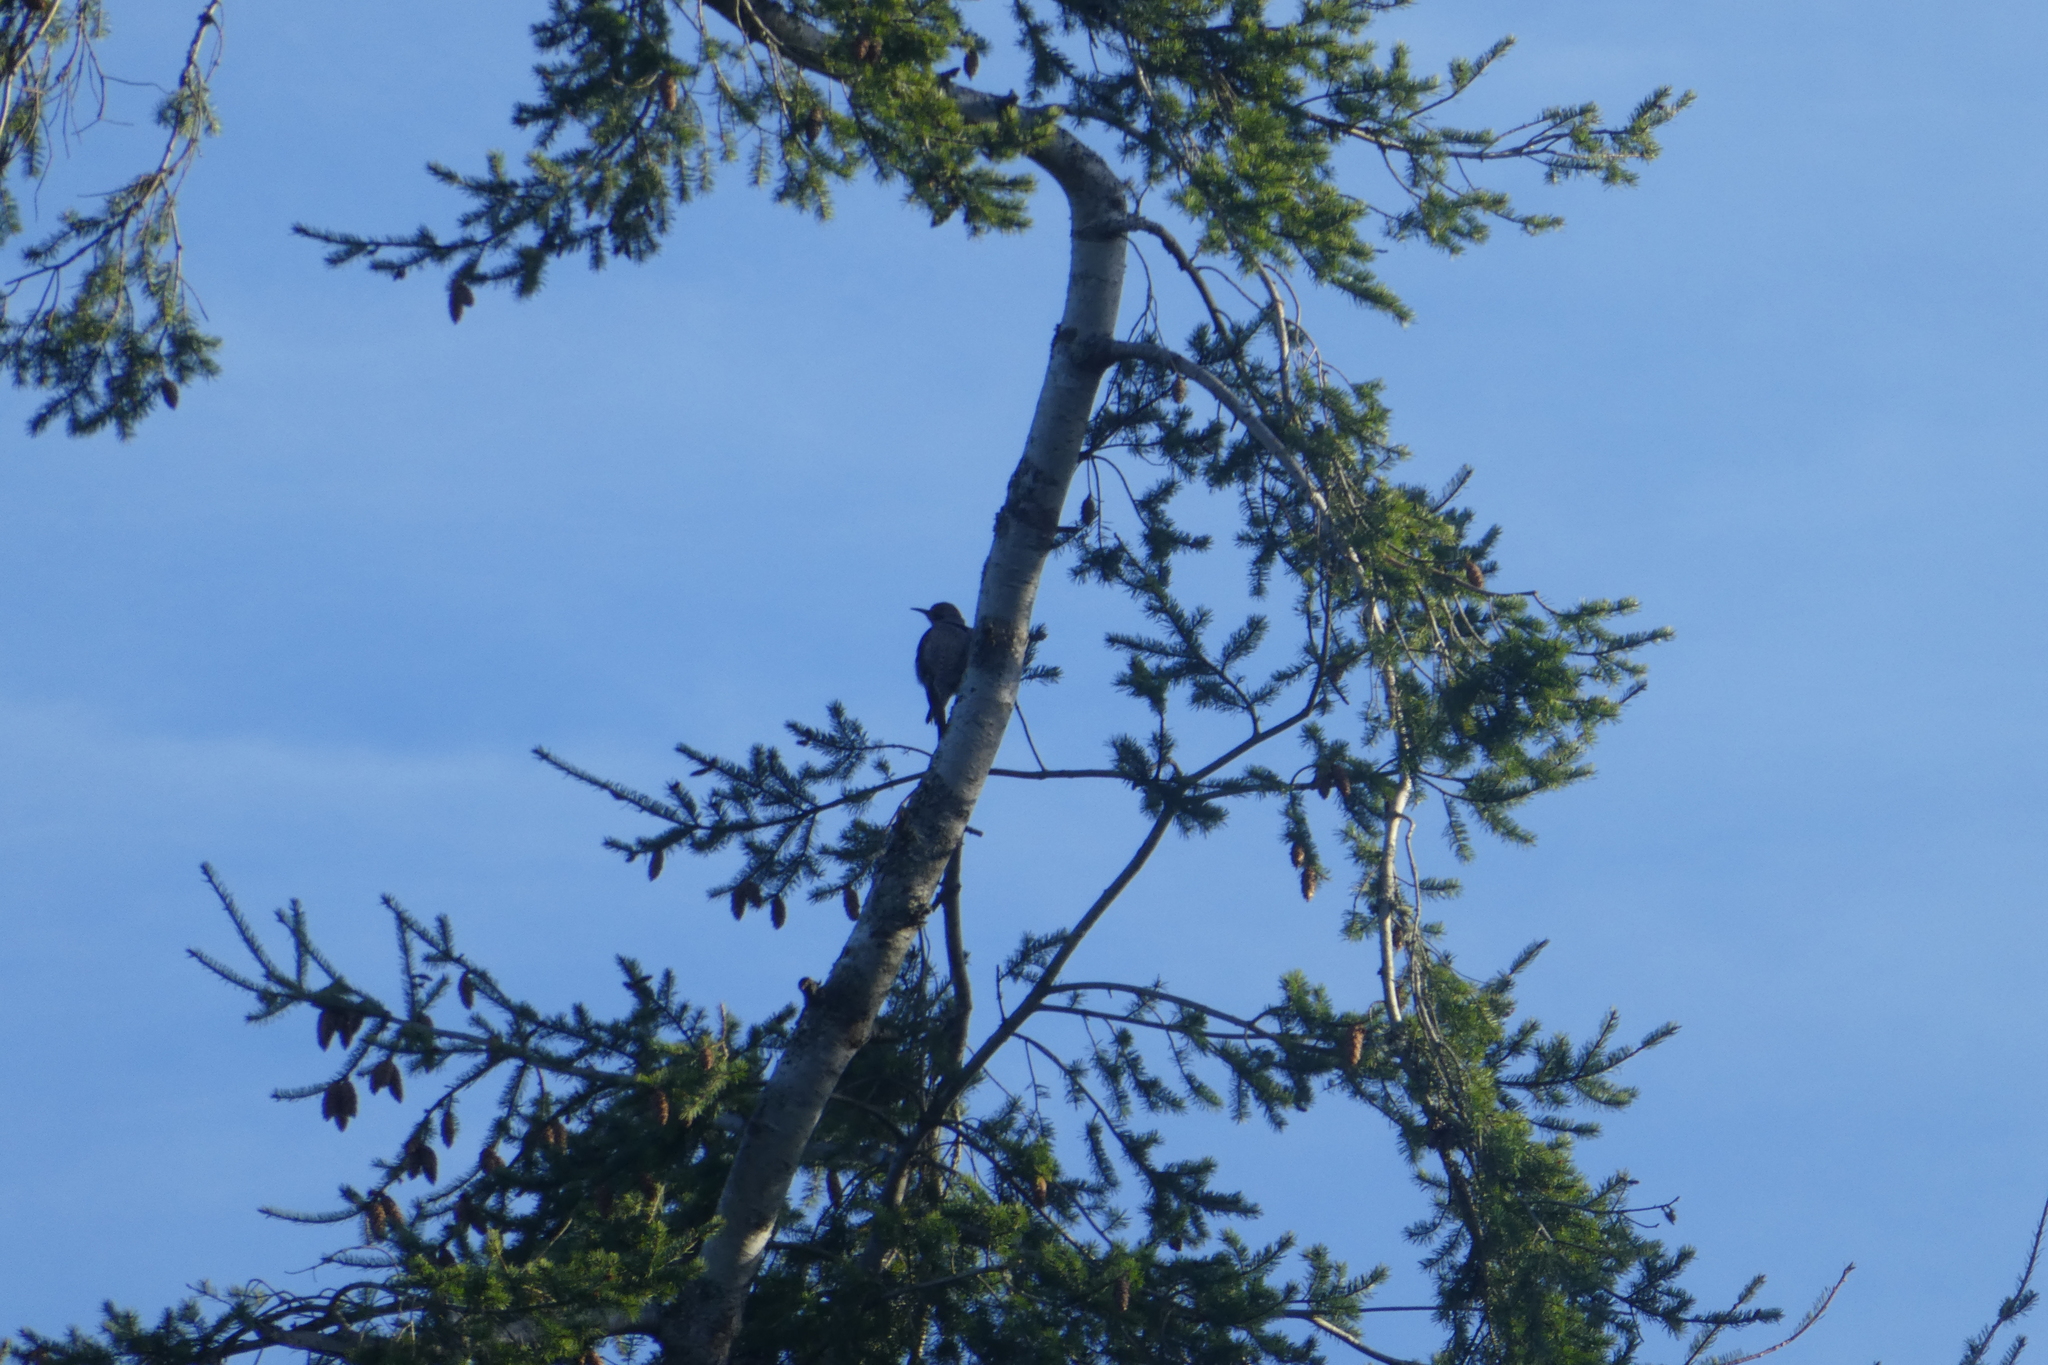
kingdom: Animalia
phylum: Chordata
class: Aves
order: Piciformes
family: Picidae
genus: Colaptes
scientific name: Colaptes auratus
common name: Northern flicker
